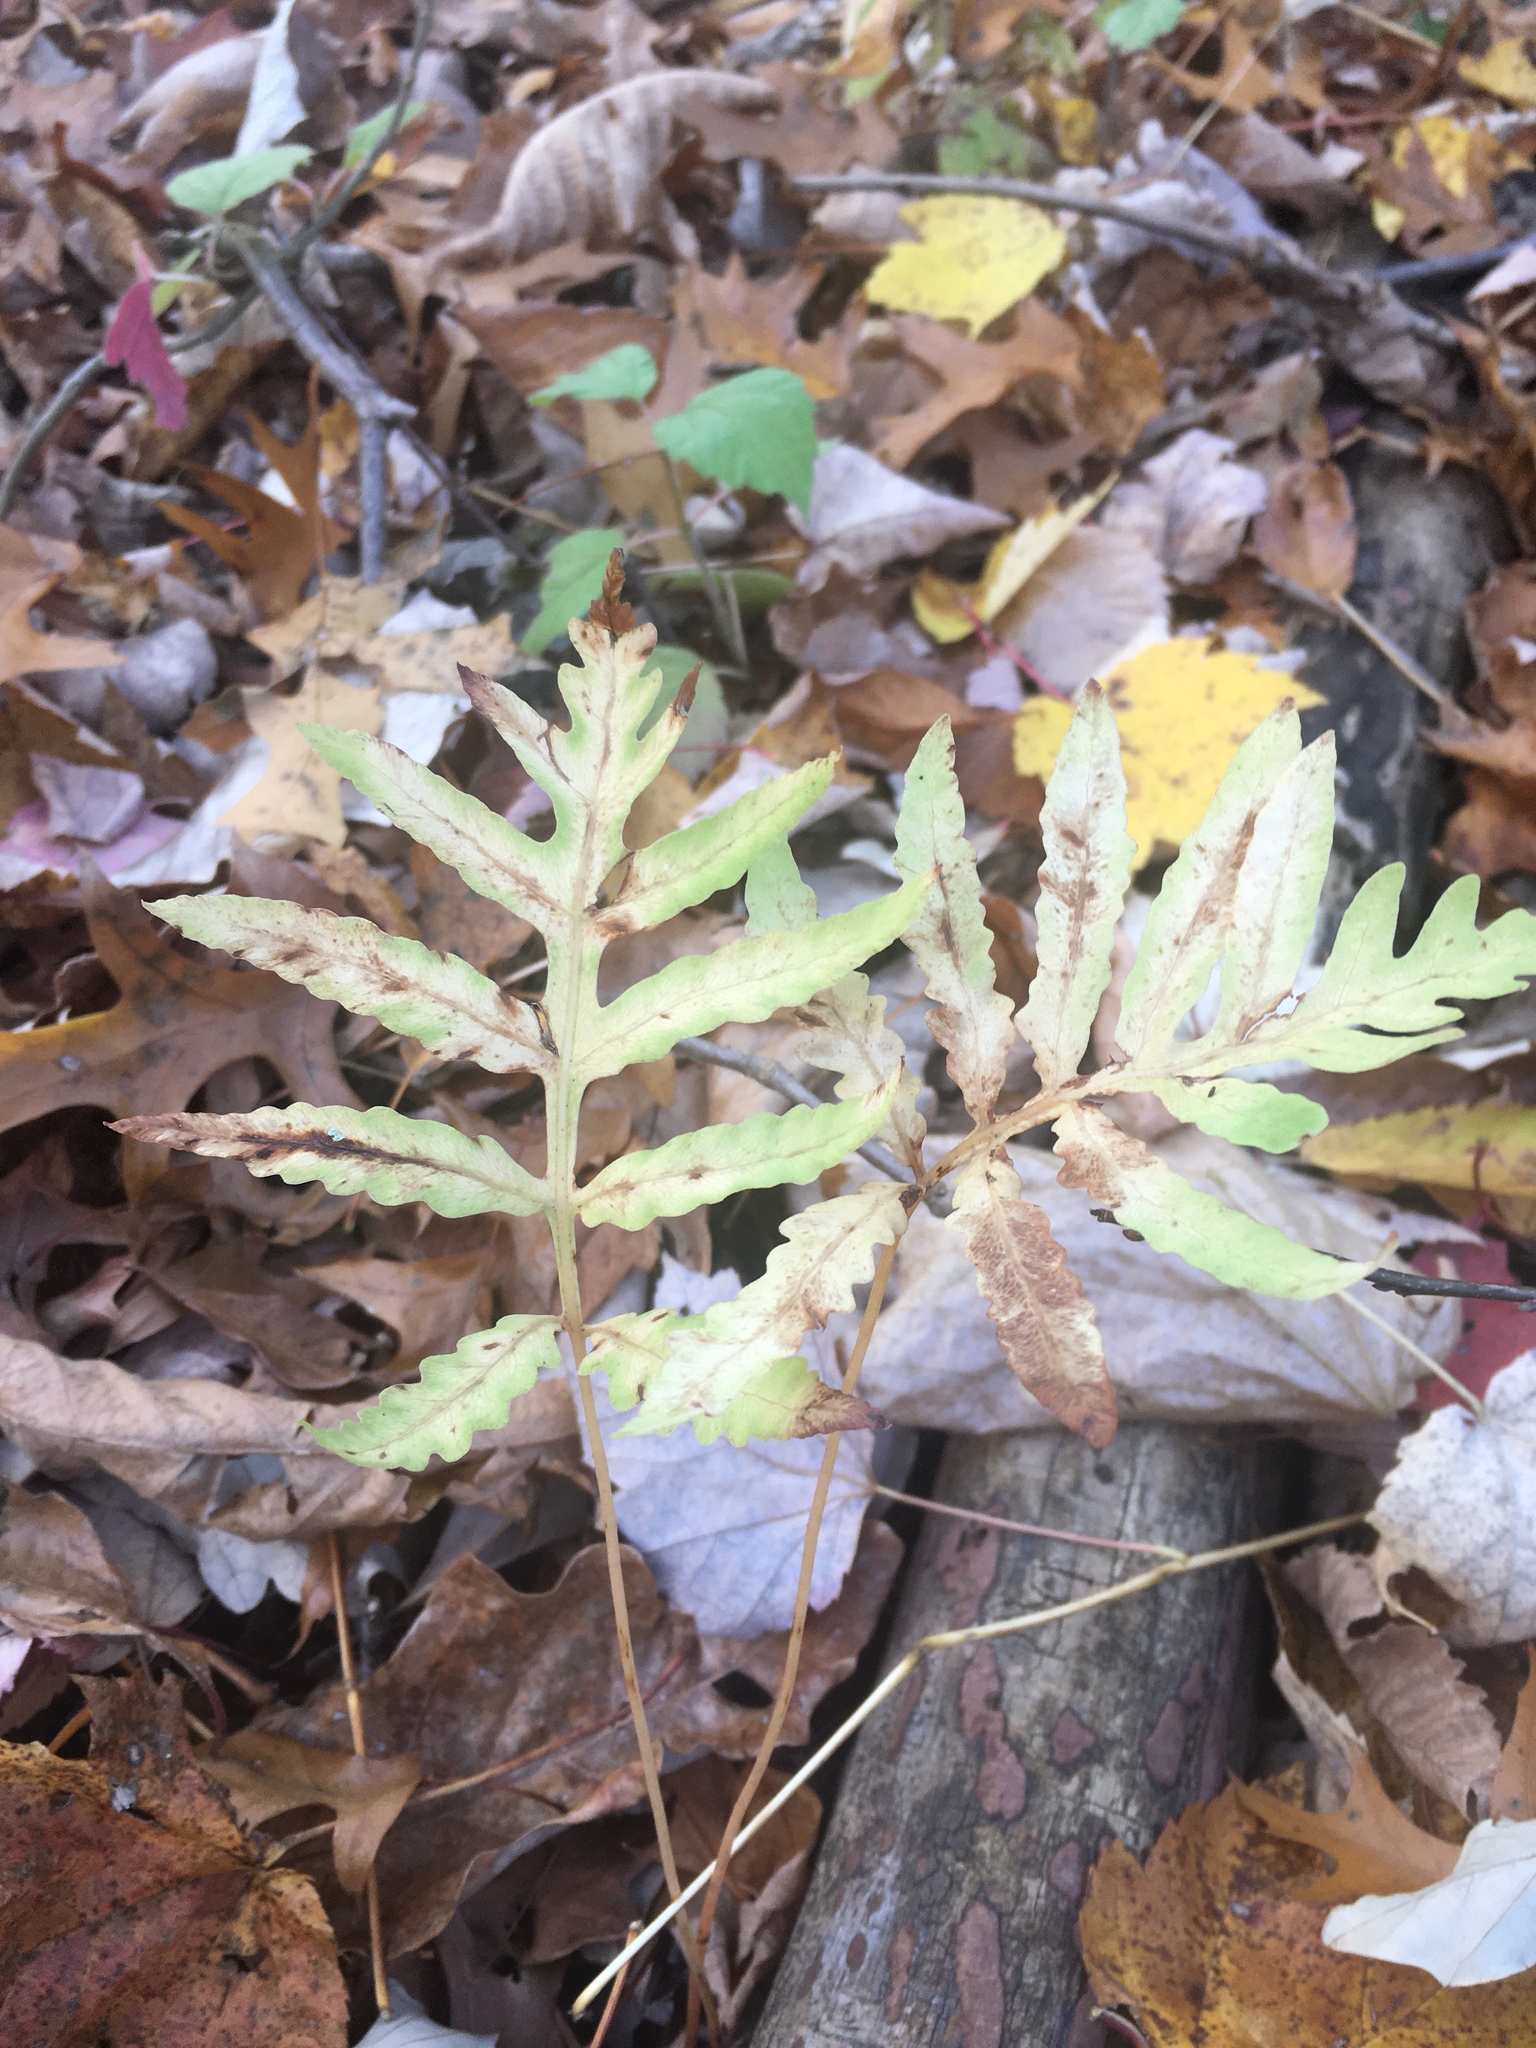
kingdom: Plantae
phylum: Tracheophyta
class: Polypodiopsida
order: Polypodiales
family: Onocleaceae
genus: Onoclea
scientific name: Onoclea sensibilis
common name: Sensitive fern
